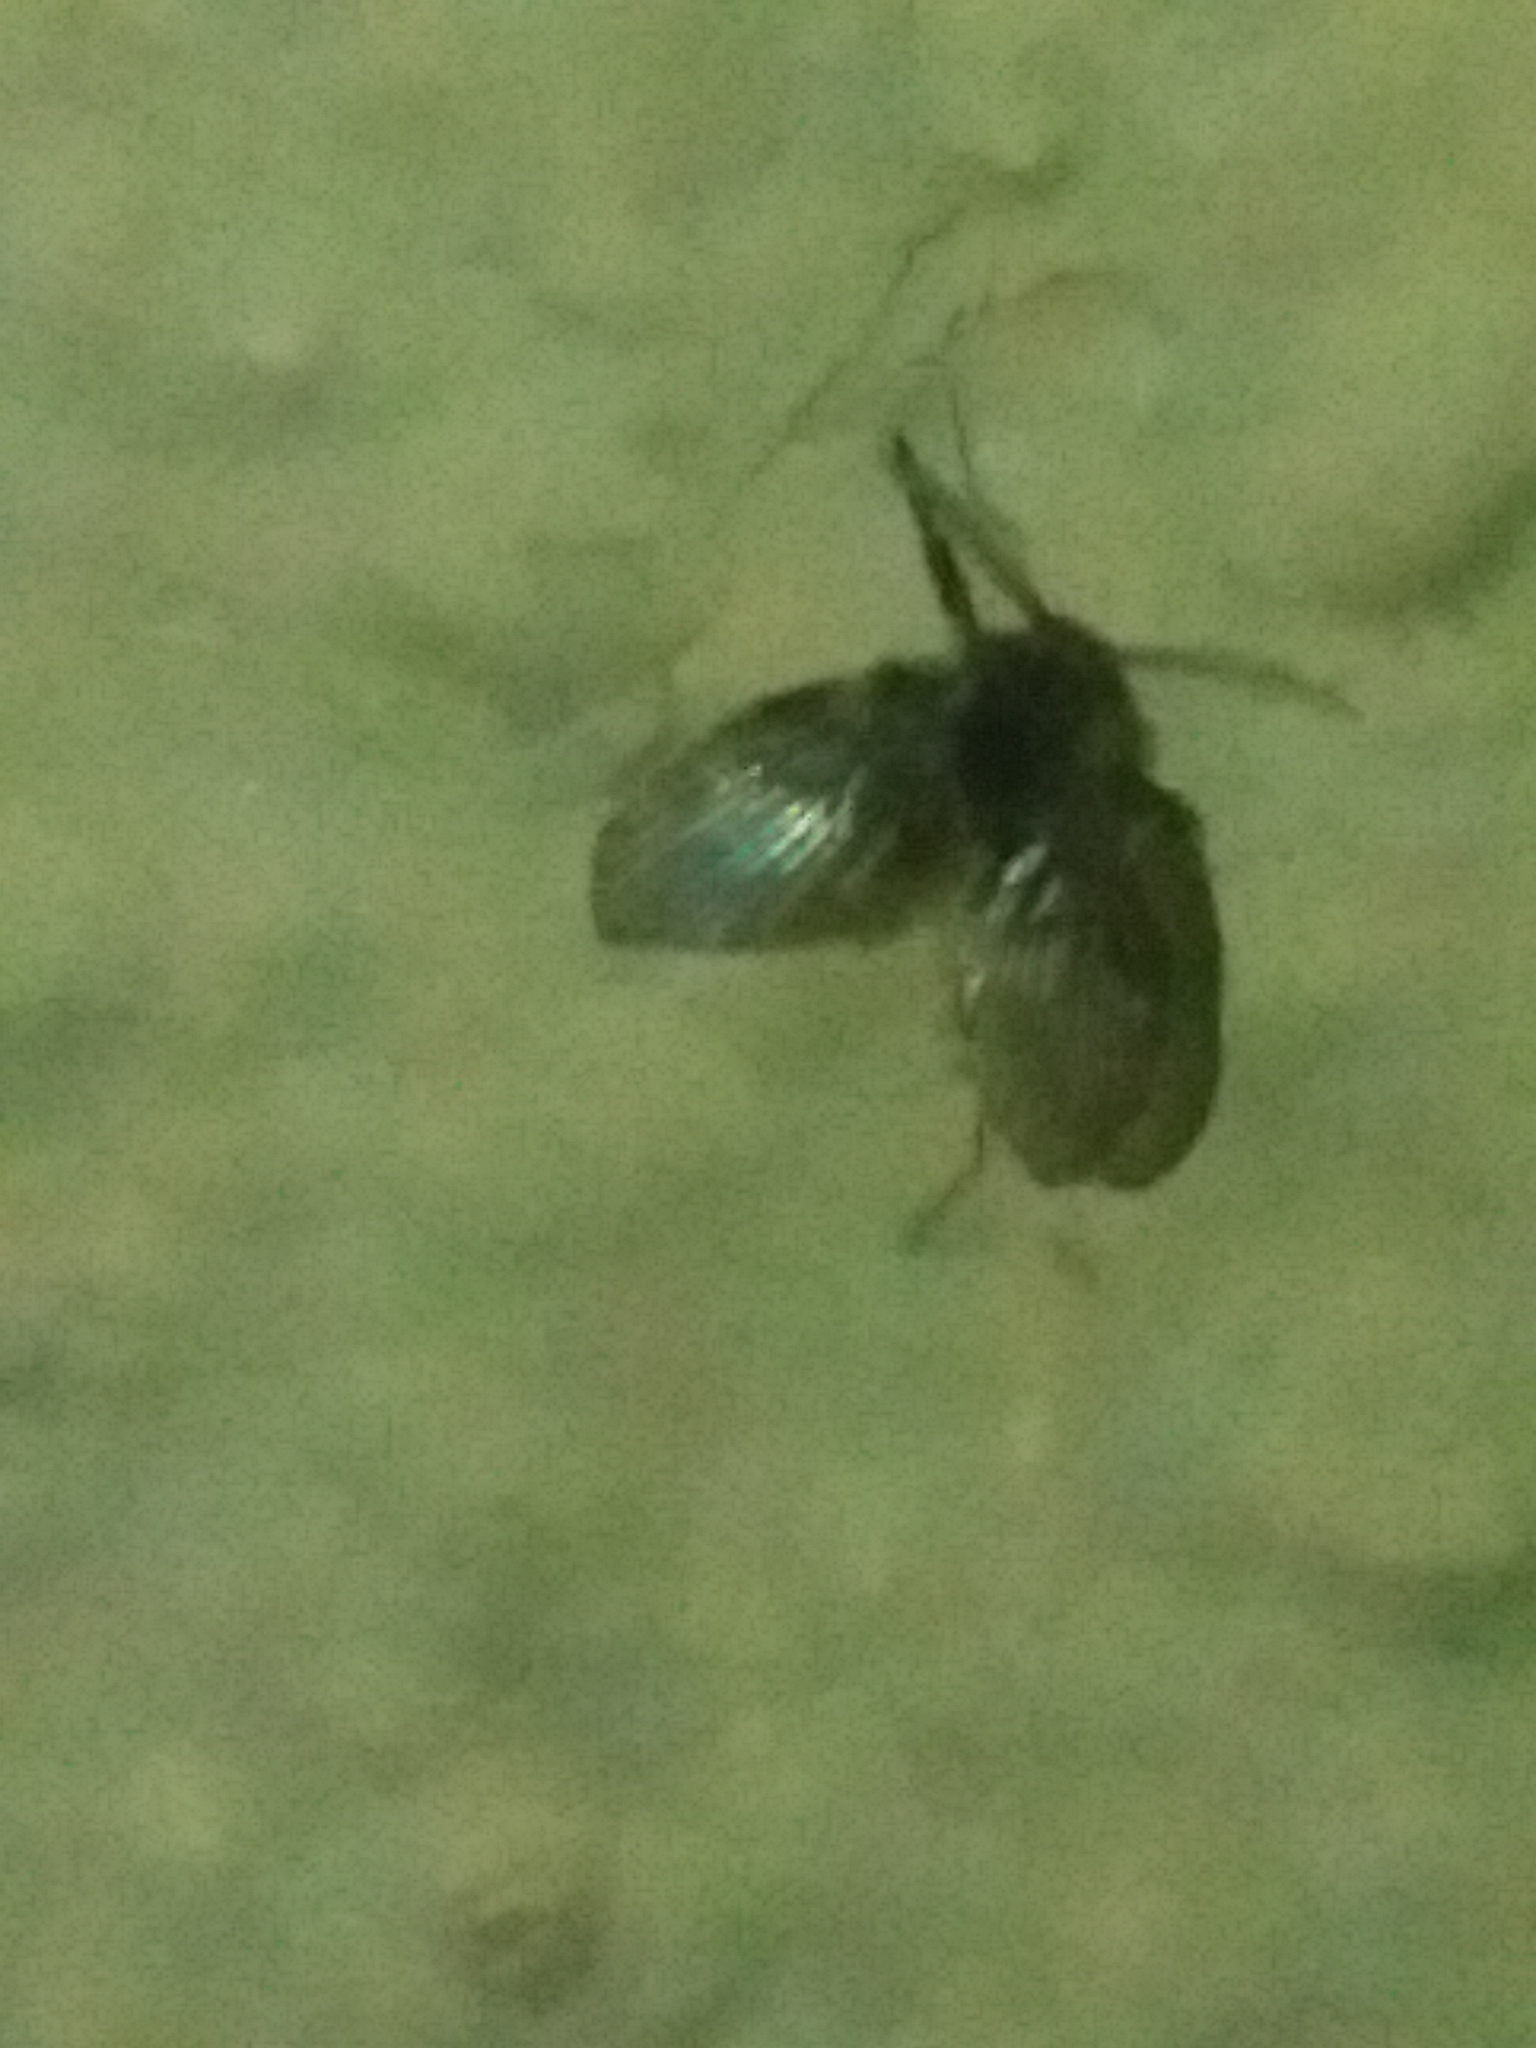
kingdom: Animalia
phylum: Arthropoda
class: Insecta
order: Diptera
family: Psychodidae
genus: Clogmia
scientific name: Clogmia albipunctatus
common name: White-spotted moth fly
